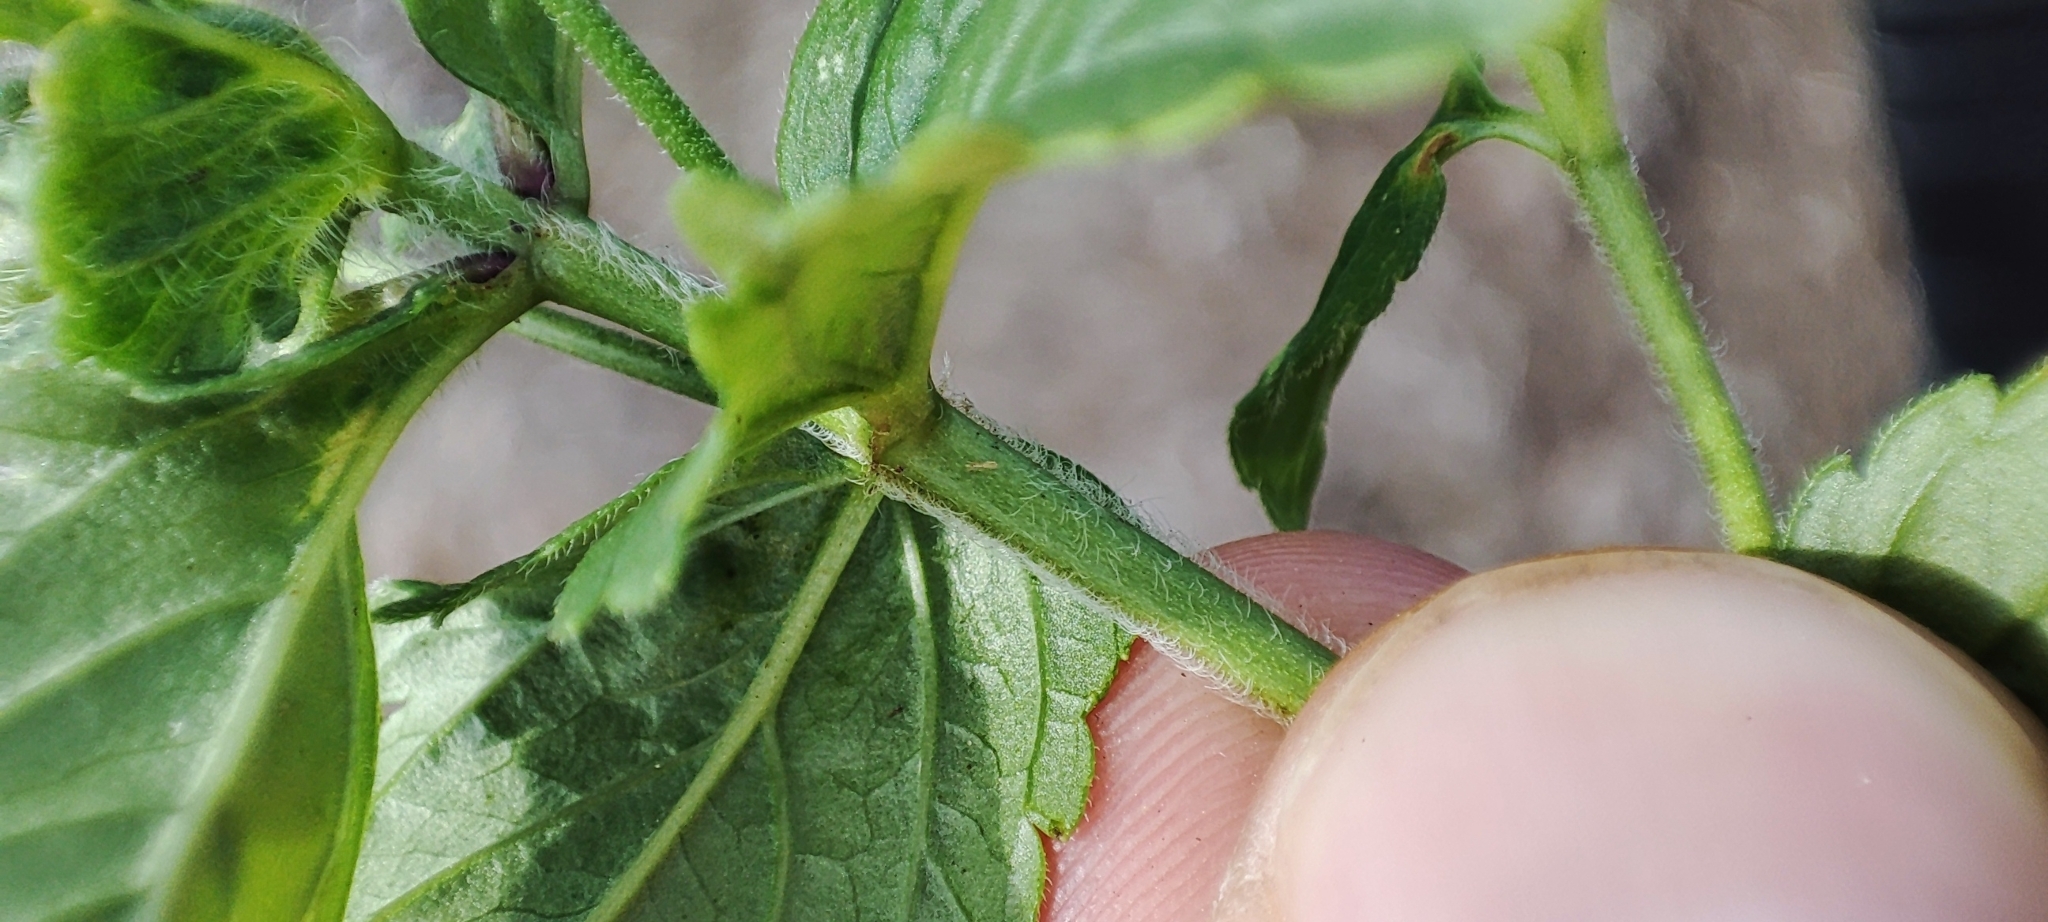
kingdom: Plantae
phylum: Tracheophyta
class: Magnoliopsida
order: Lamiales
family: Plantaginaceae
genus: Veronica
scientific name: Veronica chamaedrys
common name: Germander speedwell
